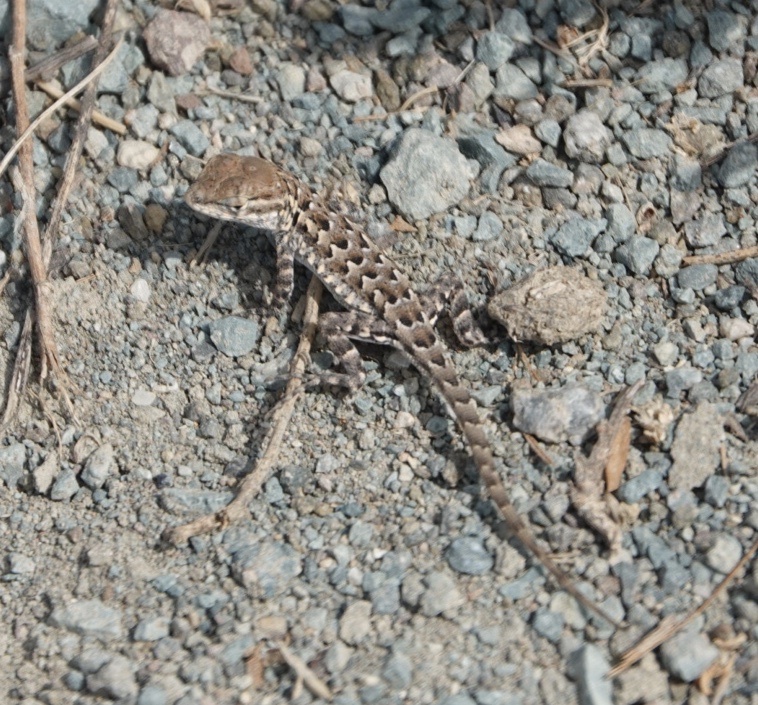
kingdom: Animalia
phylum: Chordata
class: Squamata
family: Phrynosomatidae
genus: Uta
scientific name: Uta stansburiana
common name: Side-blotched lizard
